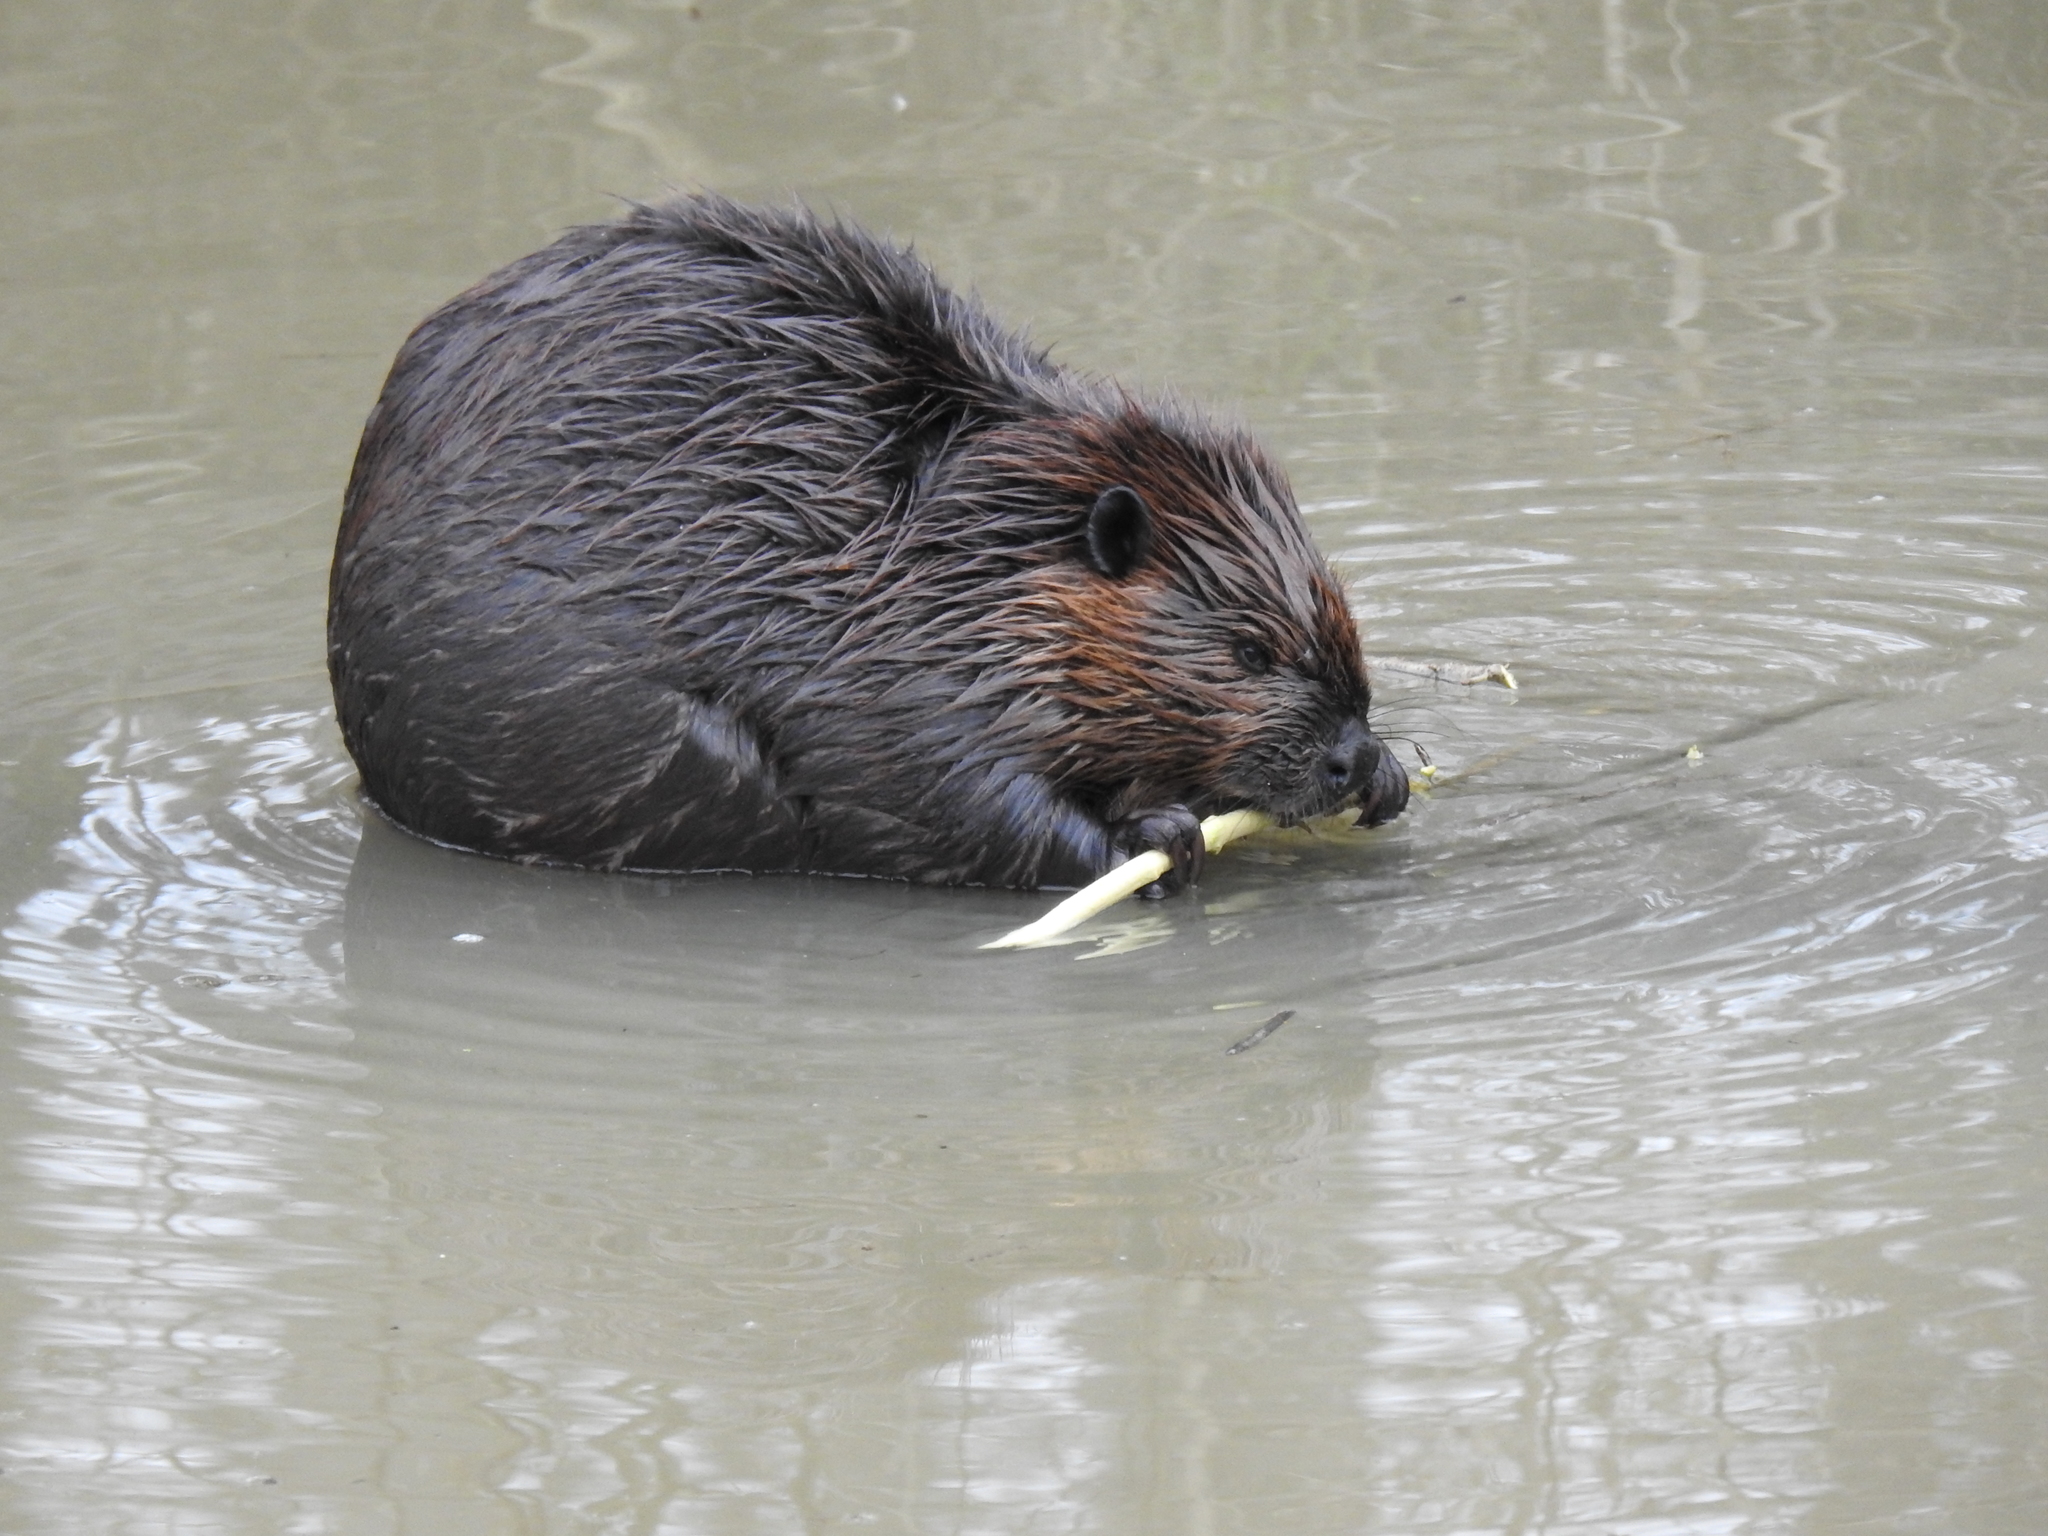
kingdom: Animalia
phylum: Chordata
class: Mammalia
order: Rodentia
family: Castoridae
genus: Castor
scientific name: Castor canadensis
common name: American beaver
